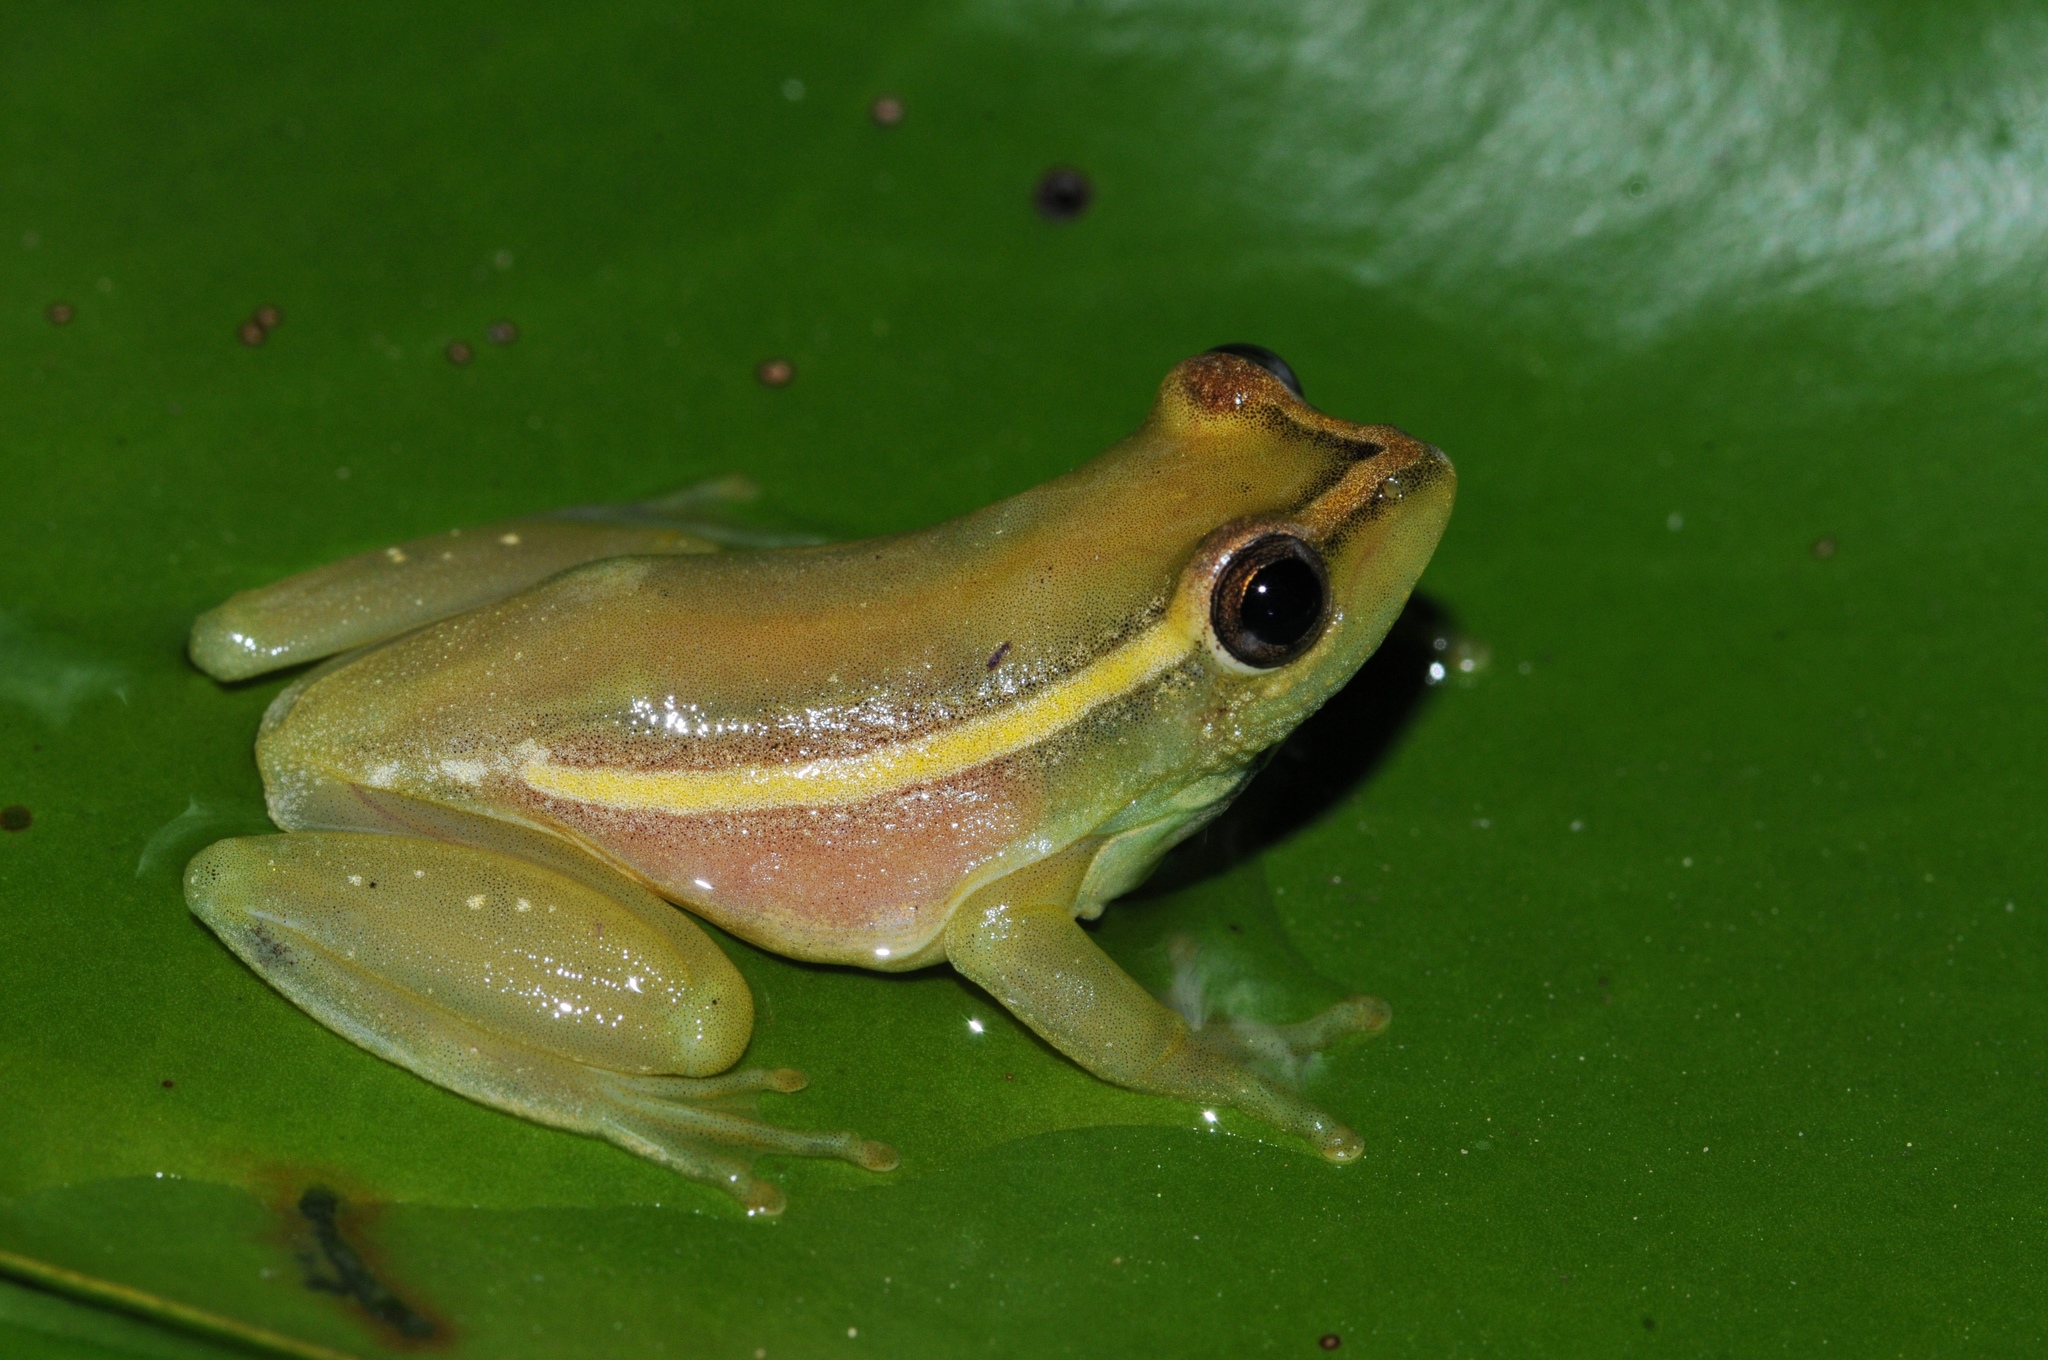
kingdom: Animalia
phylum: Chordata
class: Amphibia
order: Anura
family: Hyperoliidae
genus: Hyperolius
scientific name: Hyperolius argus
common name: Argus reed frog
